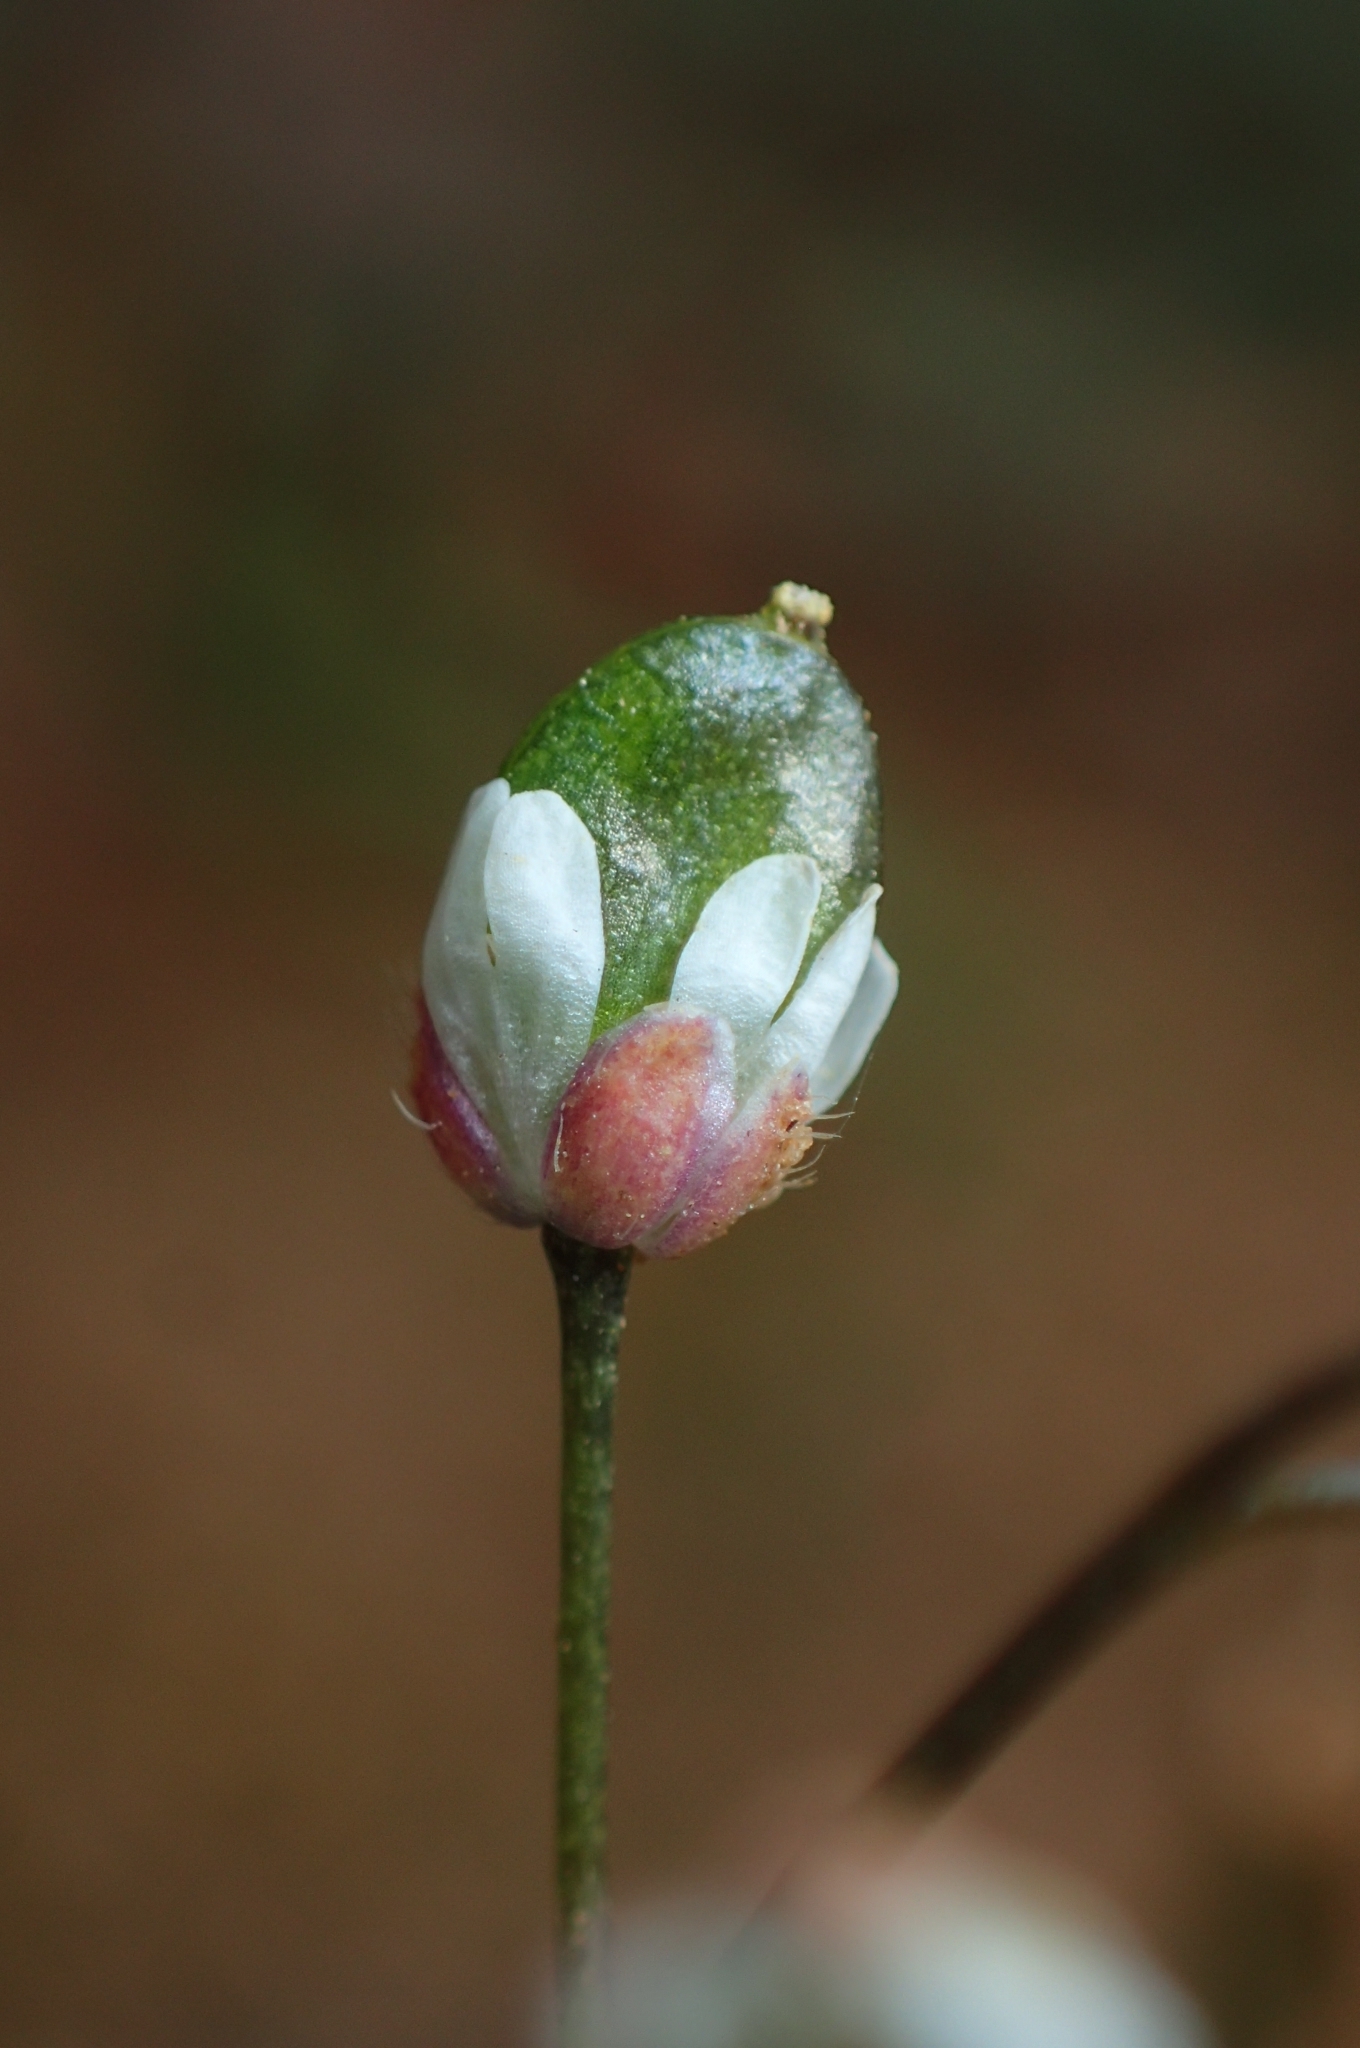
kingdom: Plantae
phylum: Tracheophyta
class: Magnoliopsida
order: Brassicales
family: Brassicaceae
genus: Draba
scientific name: Draba verna
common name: Spring draba
